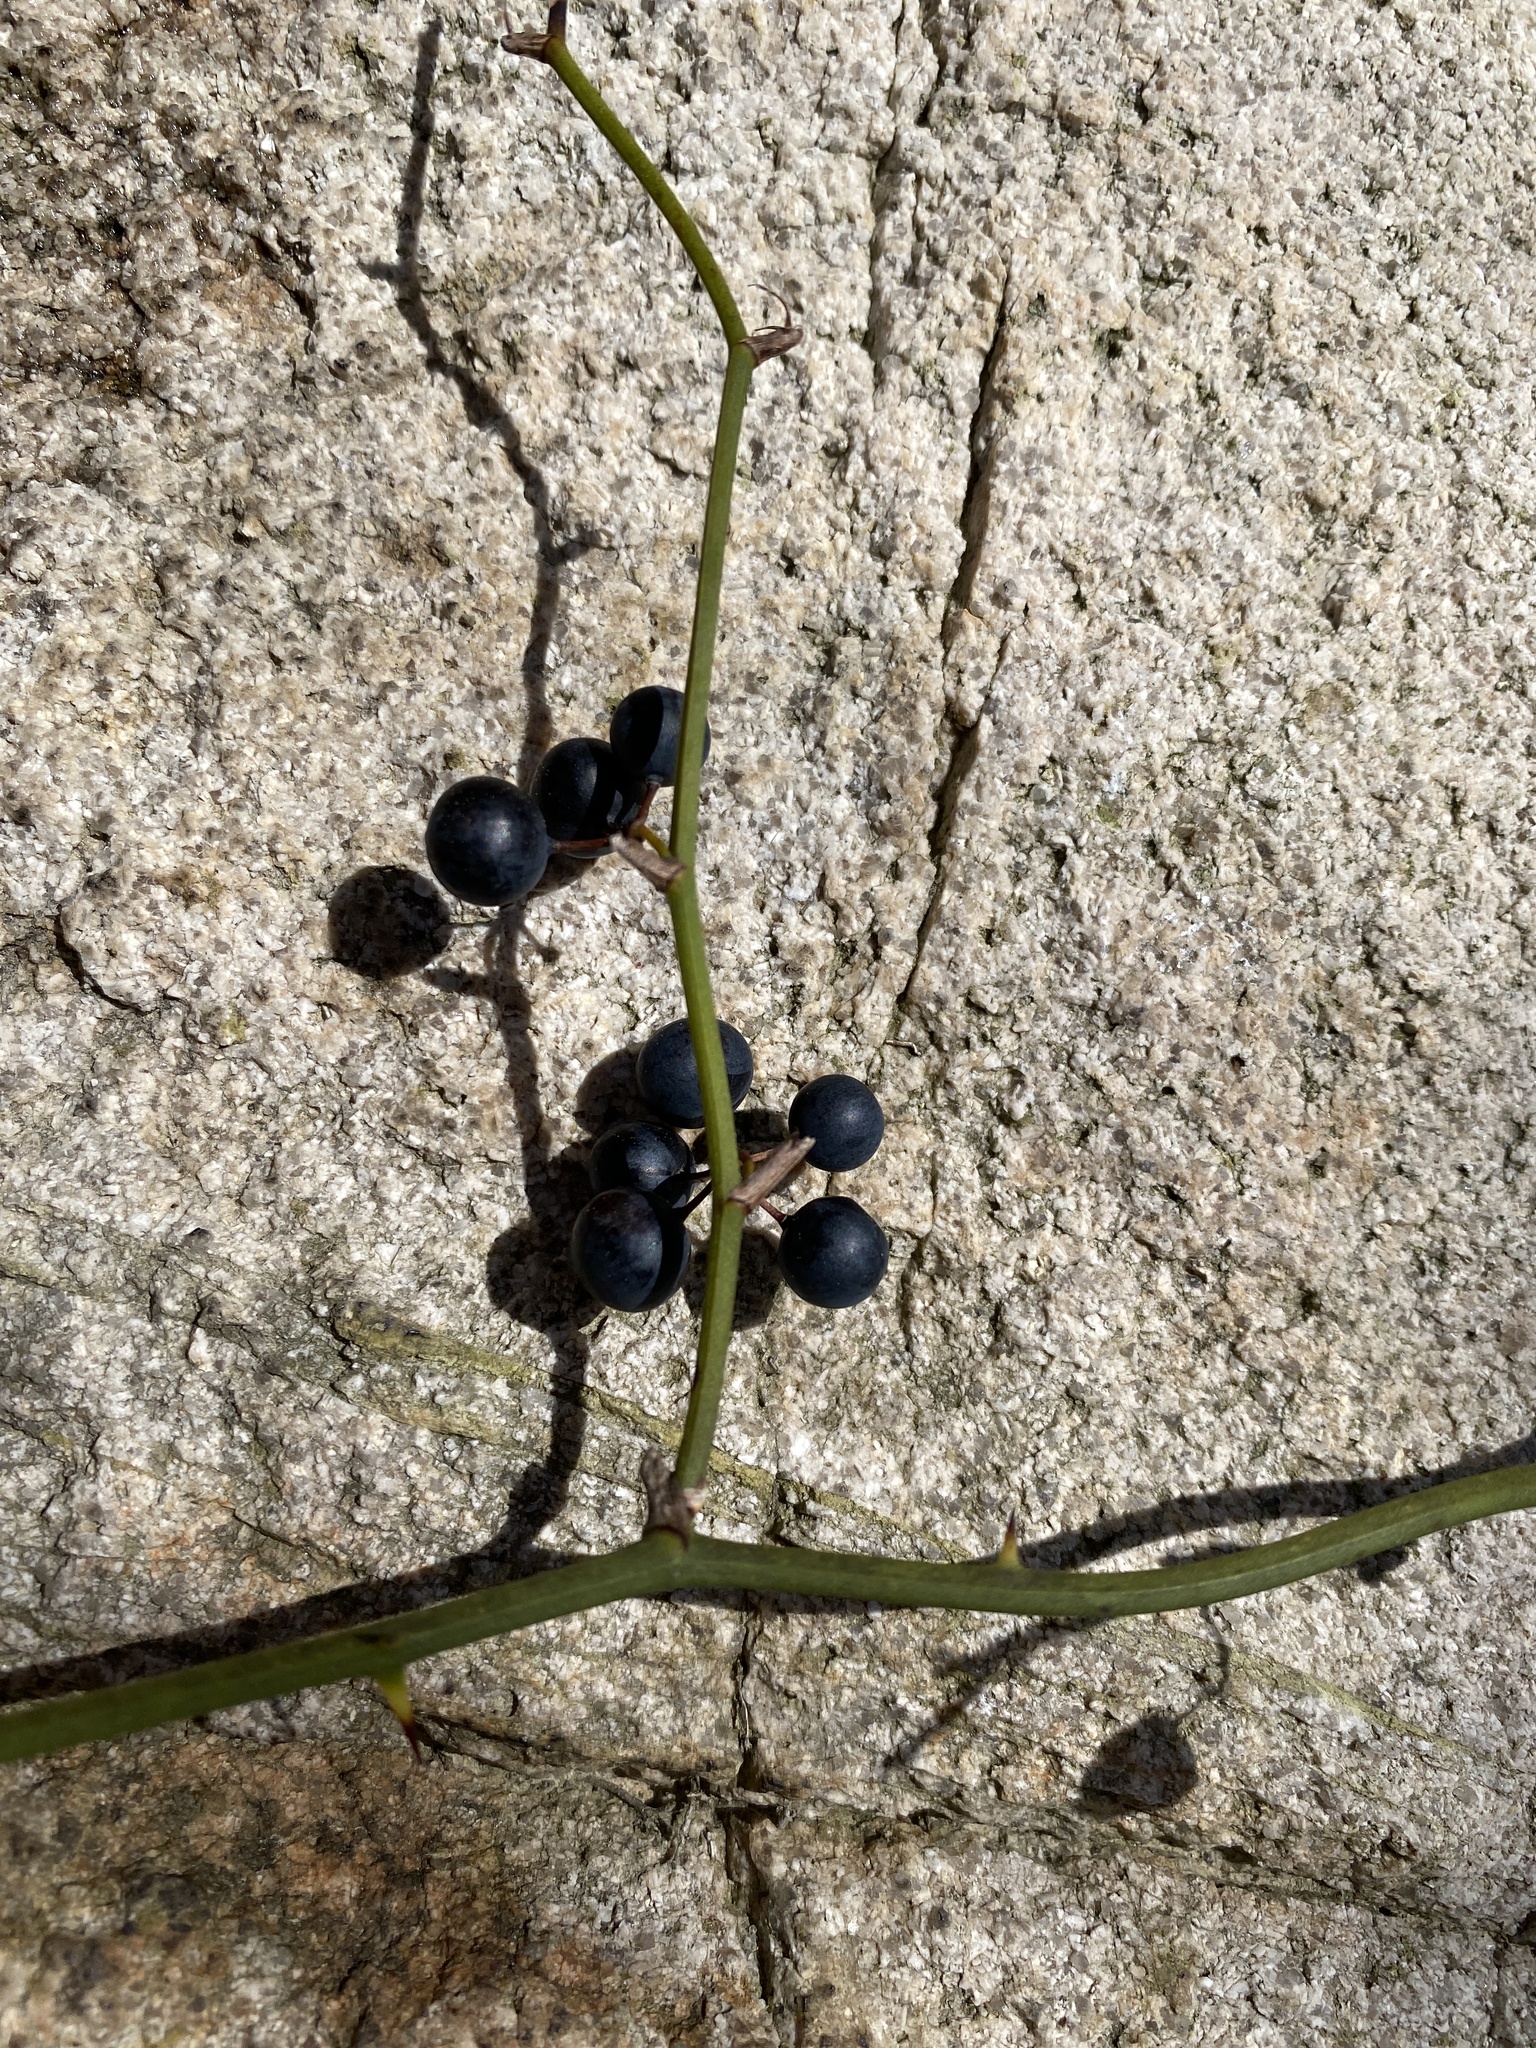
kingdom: Plantae
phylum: Tracheophyta
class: Liliopsida
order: Liliales
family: Smilacaceae
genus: Smilax
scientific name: Smilax rotundifolia
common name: Bullbriar
